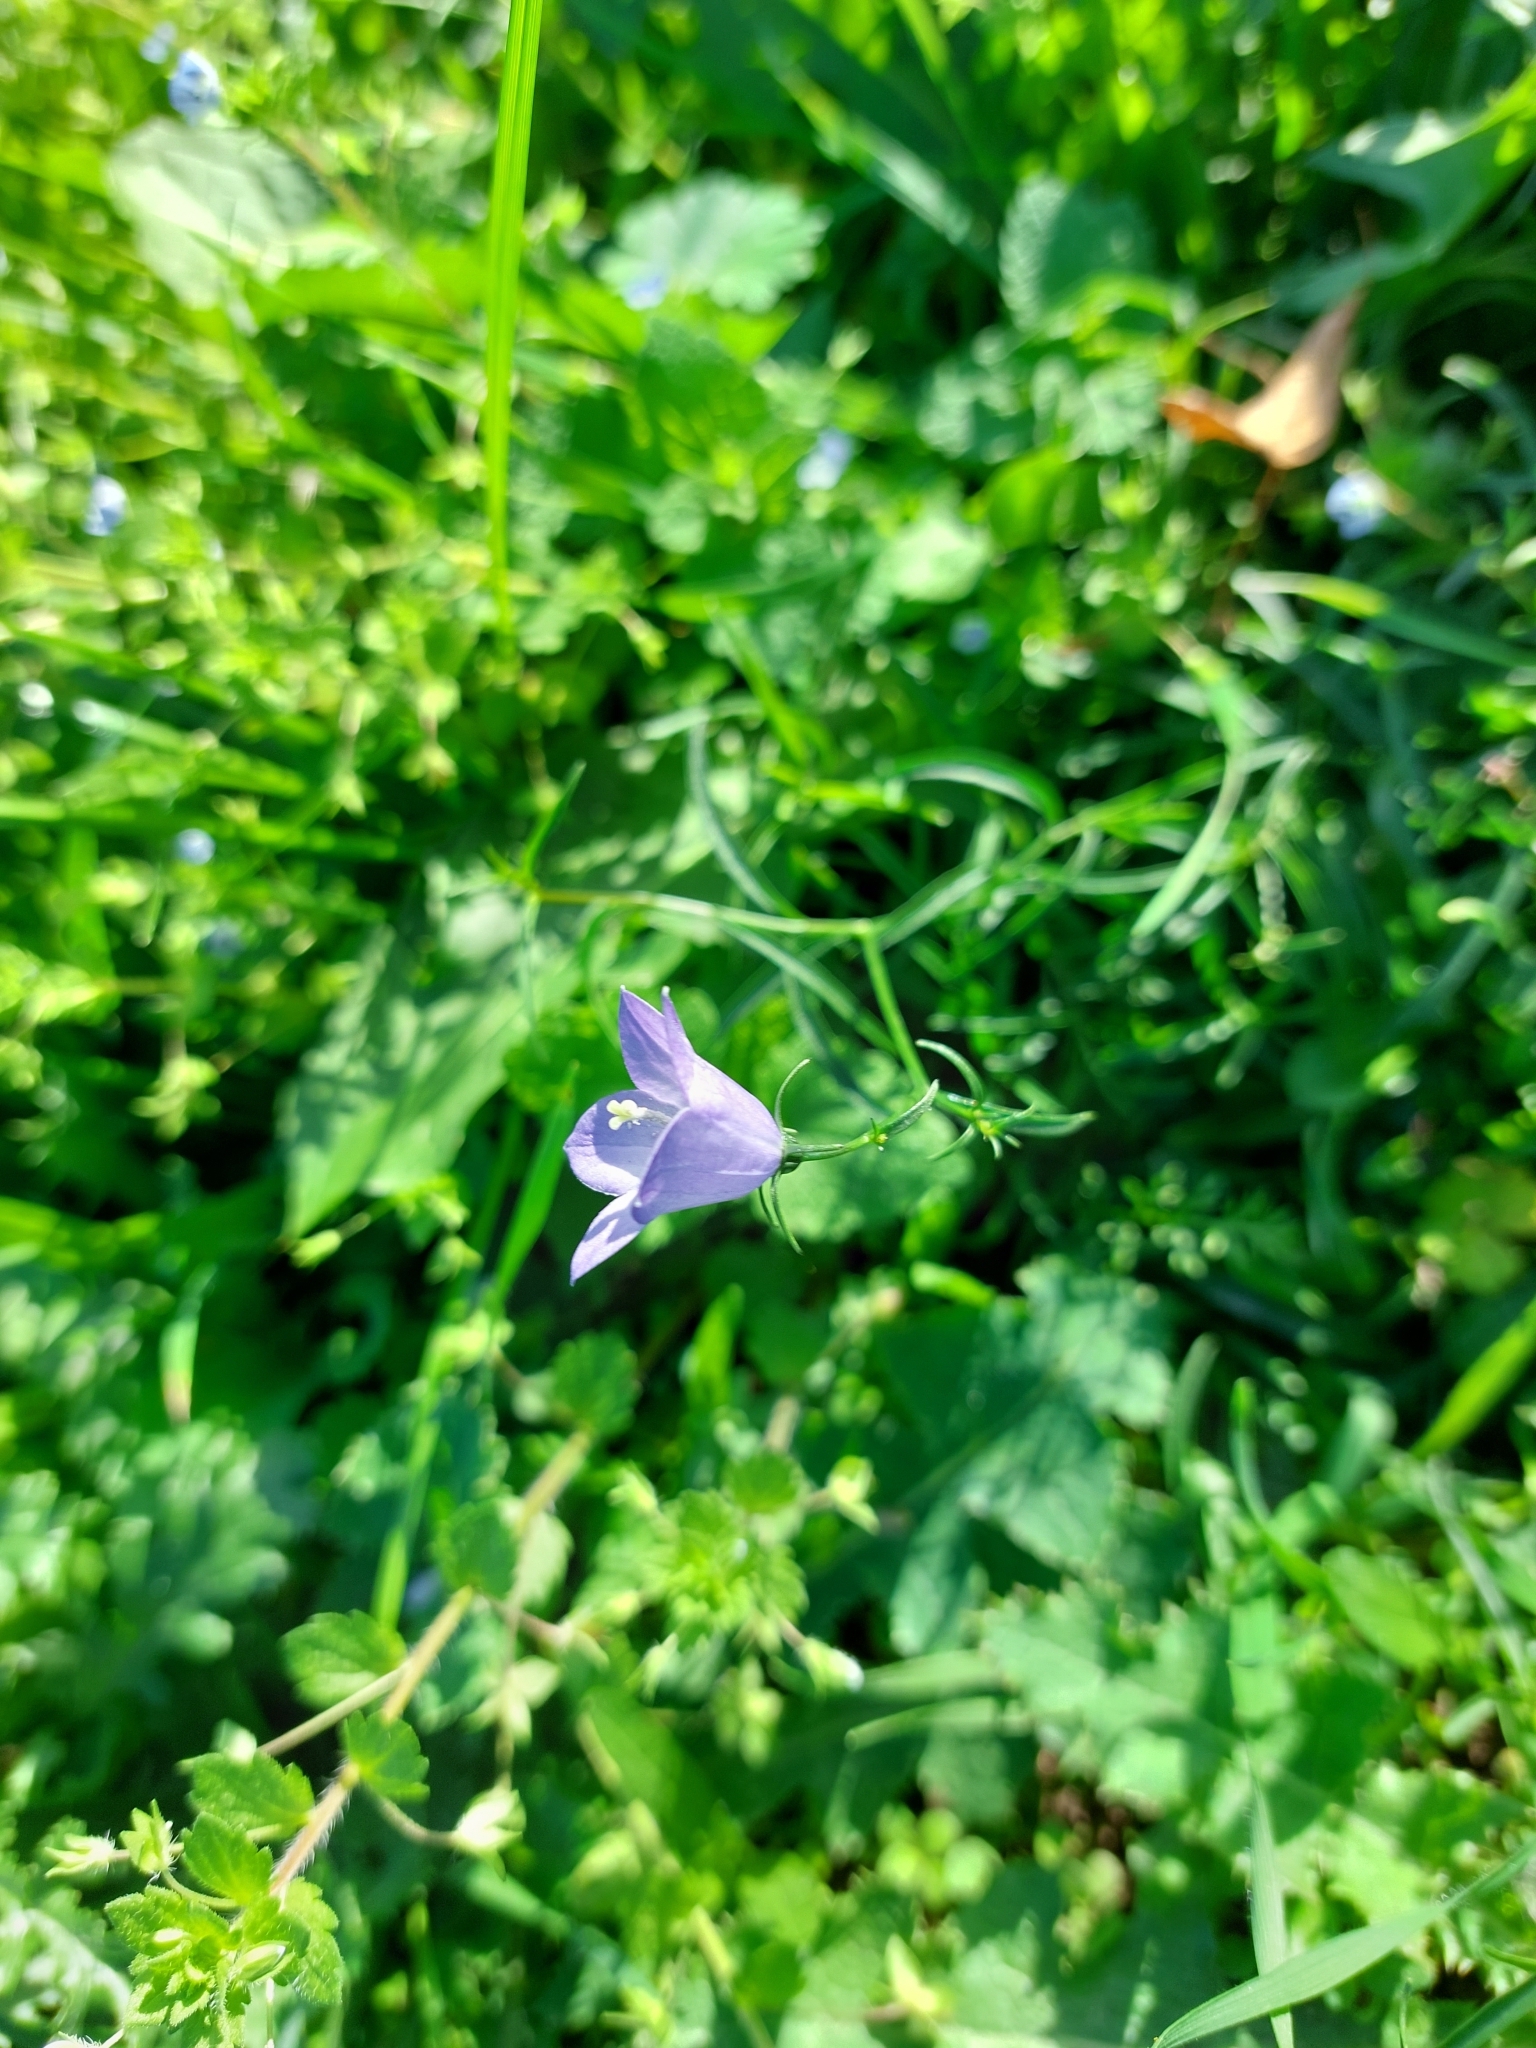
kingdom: Plantae
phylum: Tracheophyta
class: Magnoliopsida
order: Asterales
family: Campanulaceae
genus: Campanula
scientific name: Campanula rotundifolia
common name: Harebell
